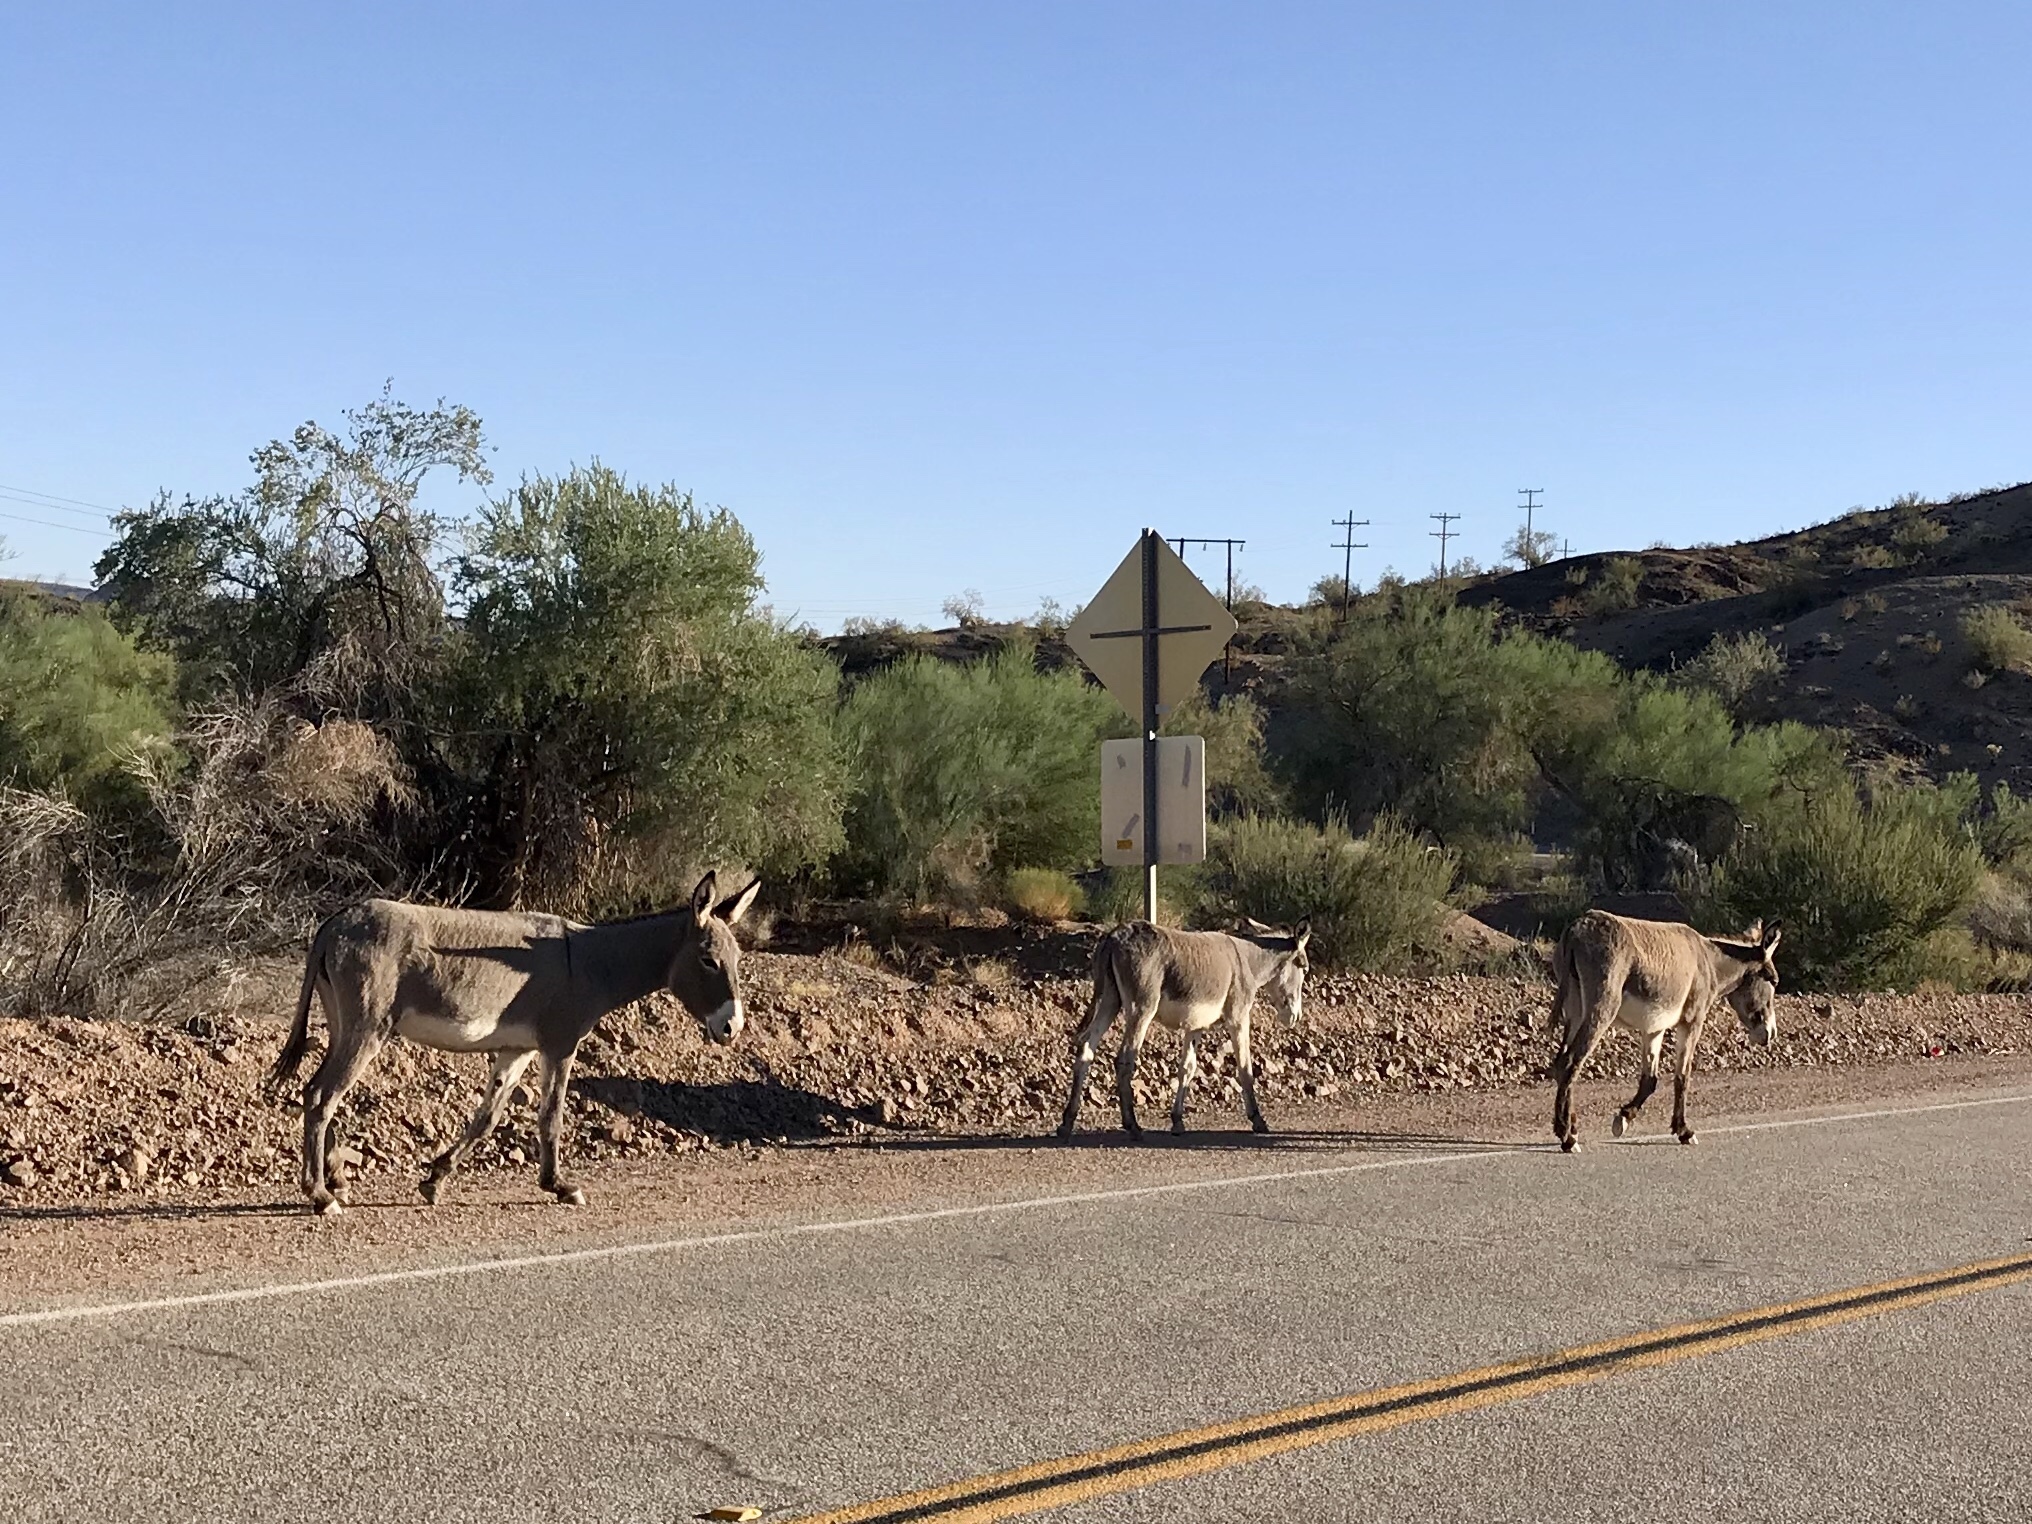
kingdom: Animalia
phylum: Chordata
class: Mammalia
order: Perissodactyla
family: Equidae
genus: Equus
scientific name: Equus asinus
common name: Ass
